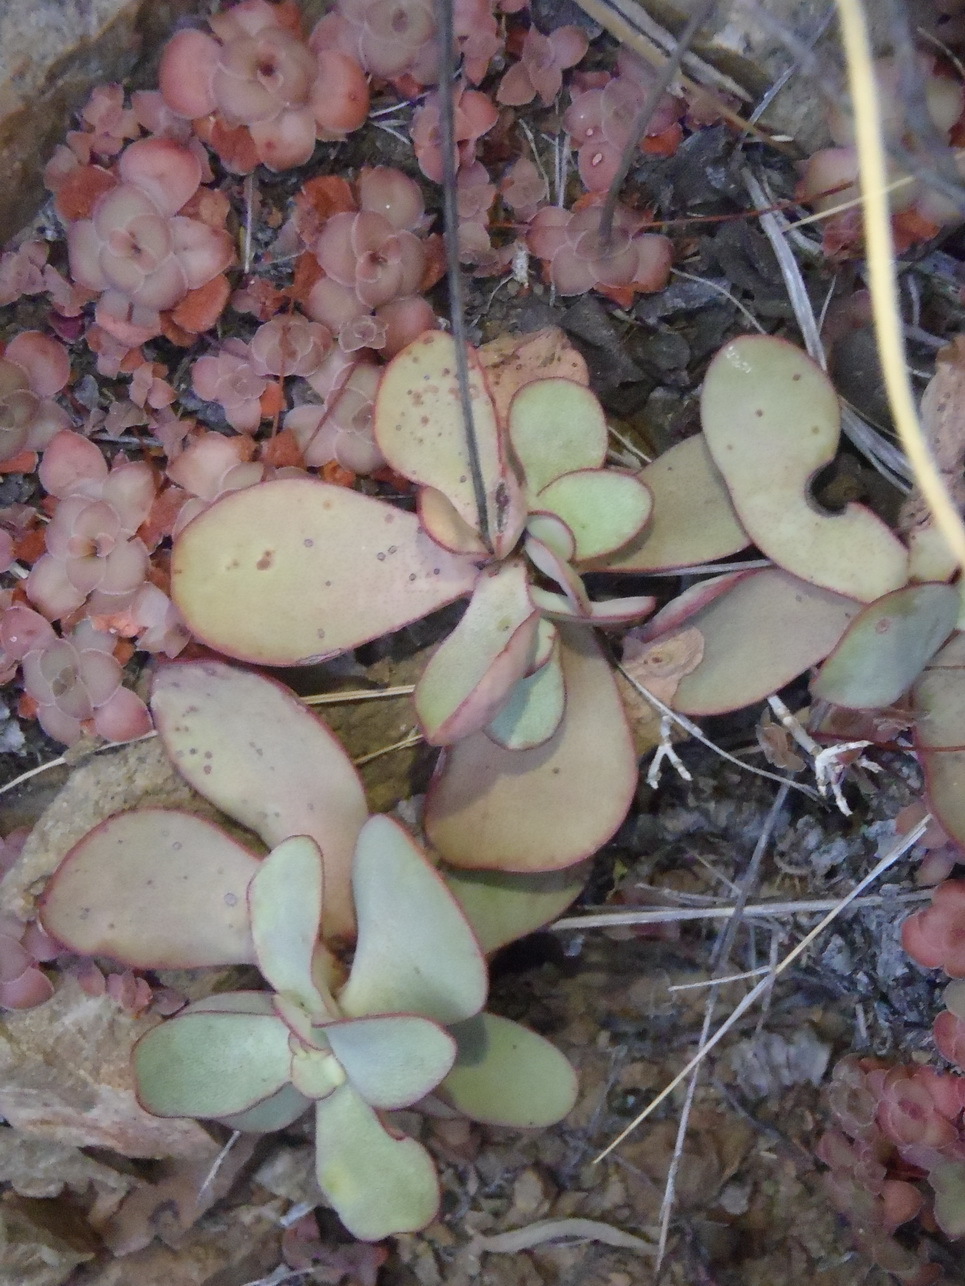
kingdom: Plantae
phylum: Tracheophyta
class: Magnoliopsida
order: Saxifragales
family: Crassulaceae
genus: Crassula
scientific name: Crassula nudicaulis
